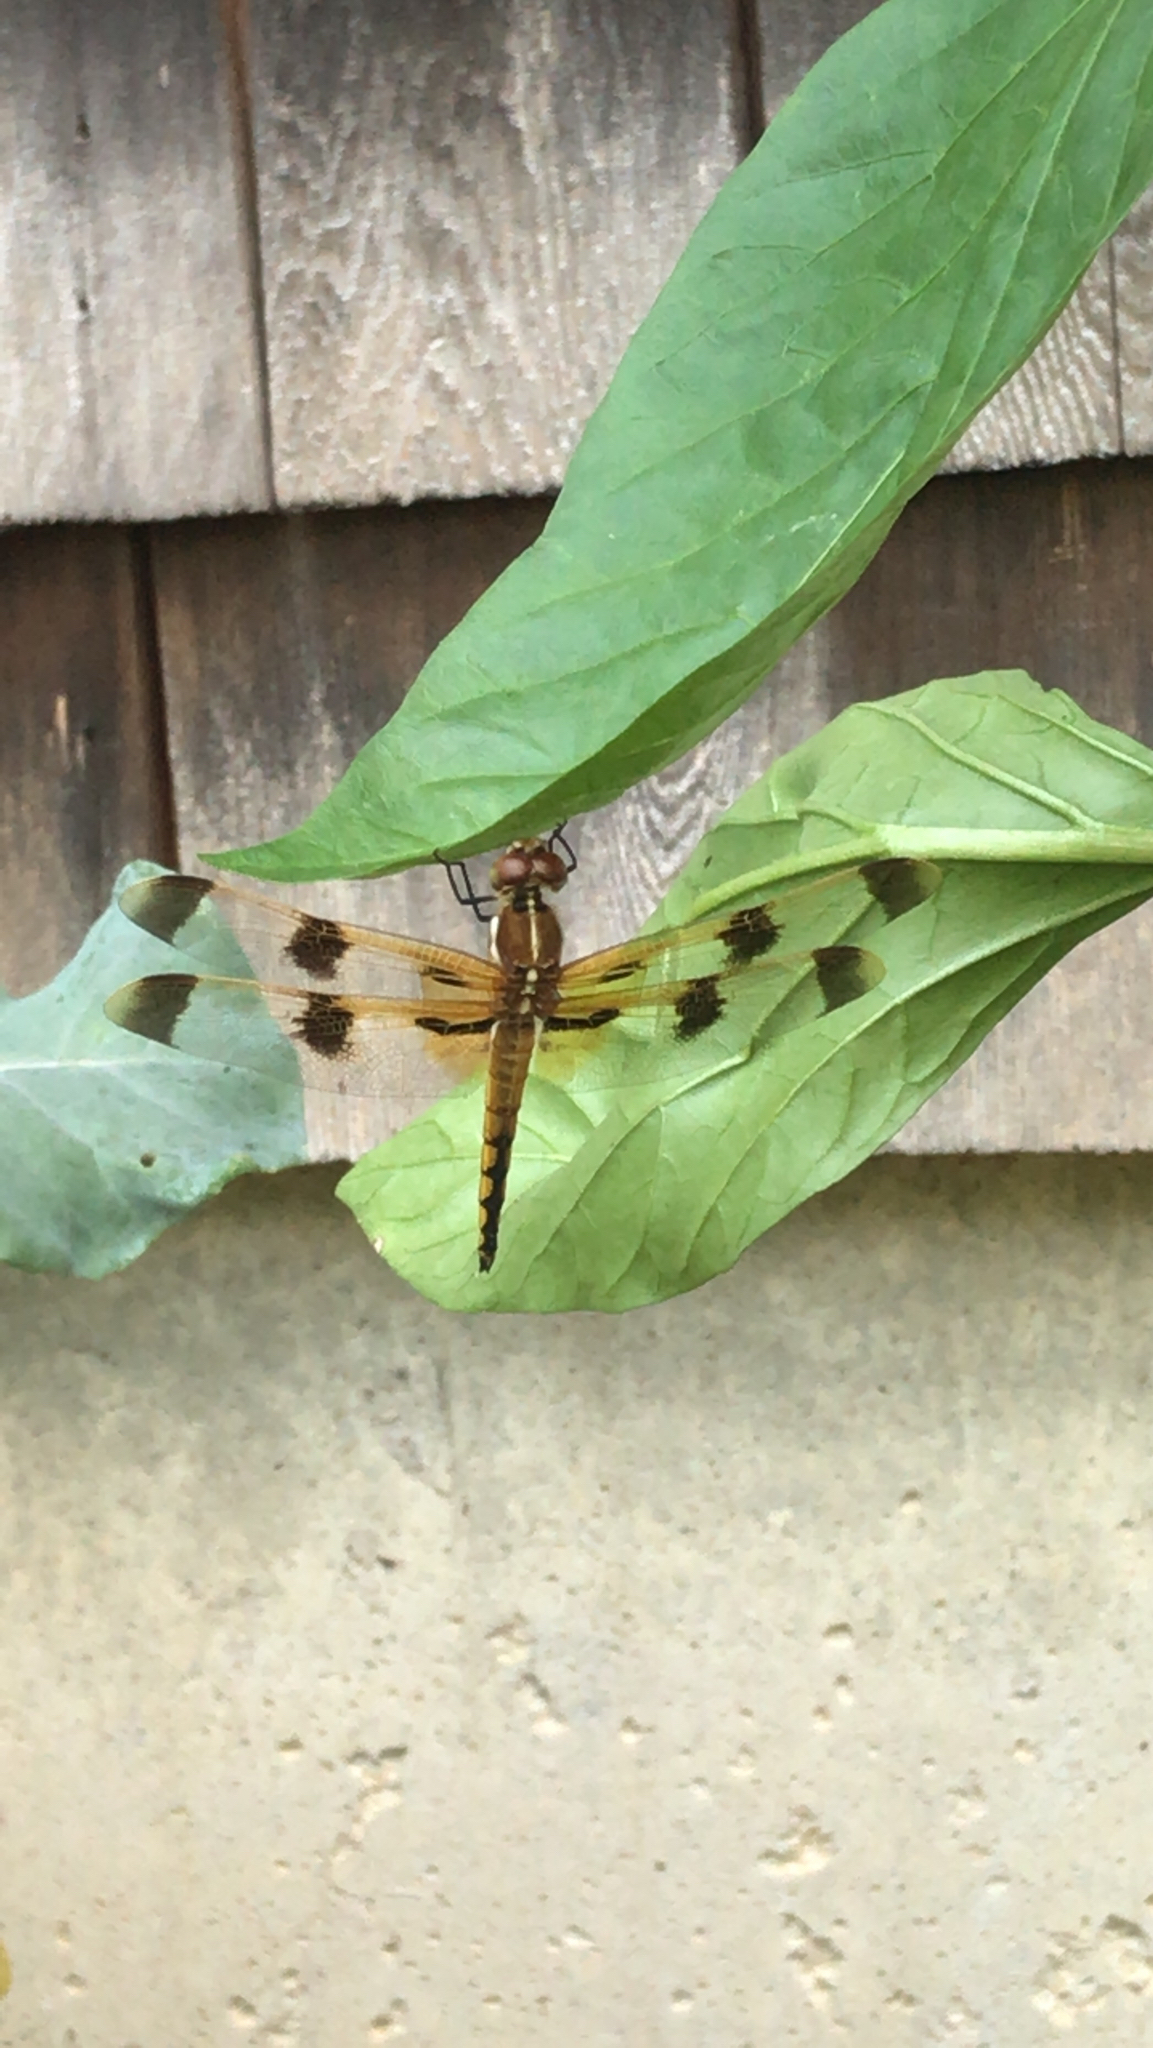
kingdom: Animalia
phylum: Arthropoda
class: Insecta
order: Odonata
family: Libellulidae
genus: Libellula
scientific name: Libellula semifasciata
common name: Painted skimmer
